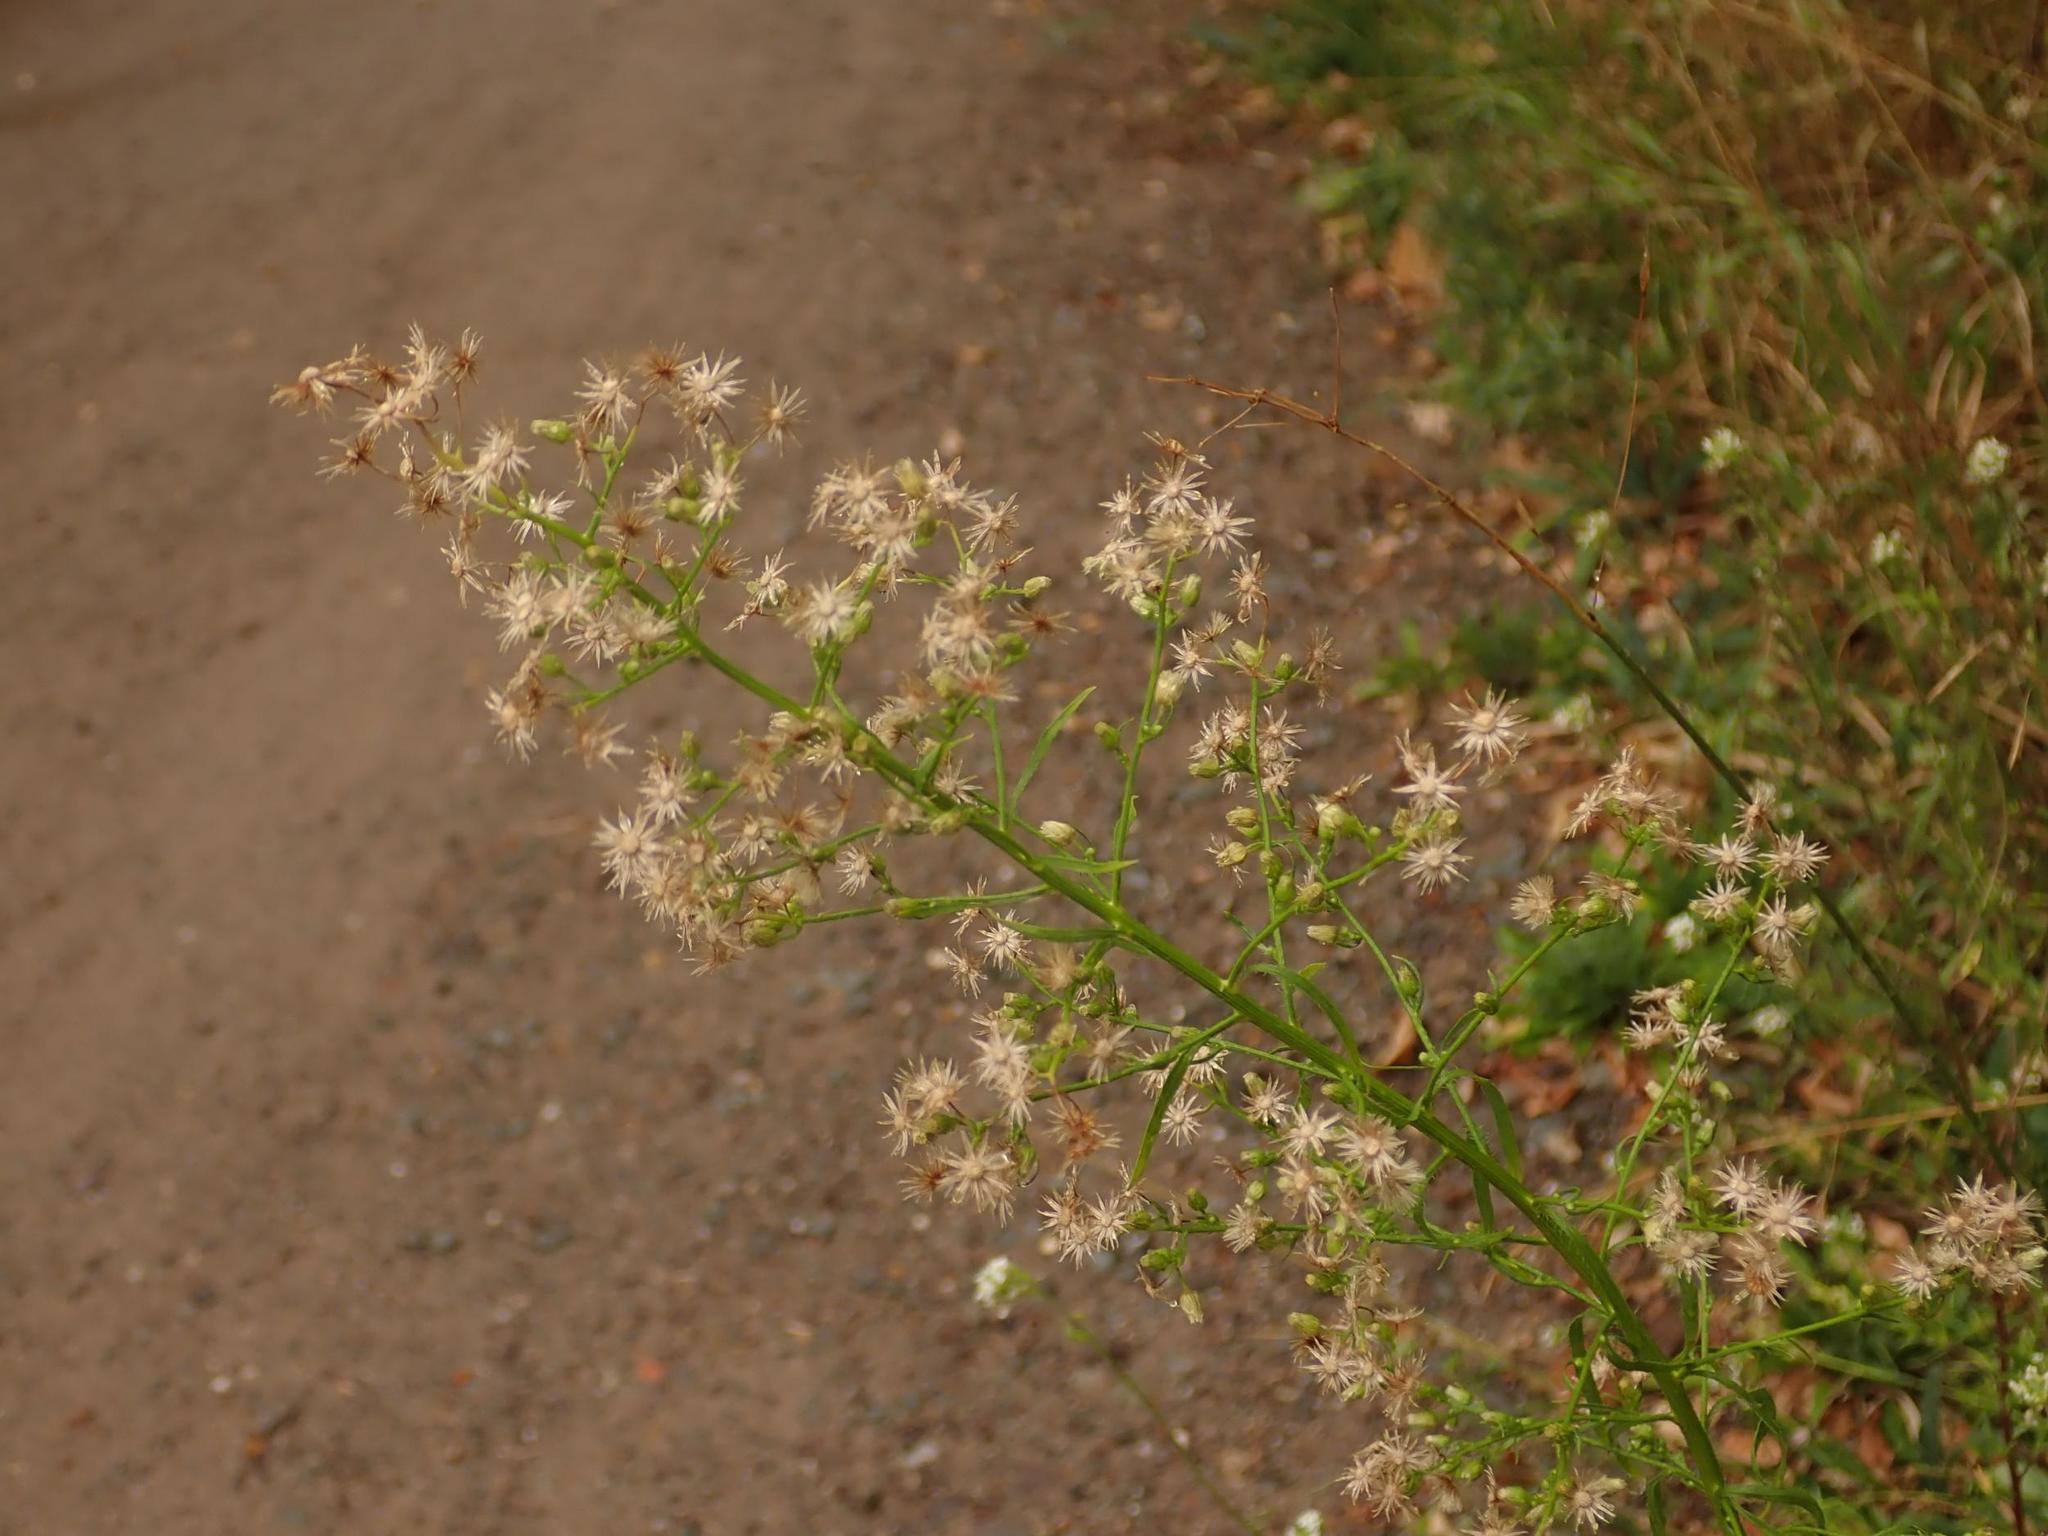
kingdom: Plantae
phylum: Tracheophyta
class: Magnoliopsida
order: Asterales
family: Asteraceae
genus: Erigeron
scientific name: Erigeron canadensis
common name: Canadian fleabane
